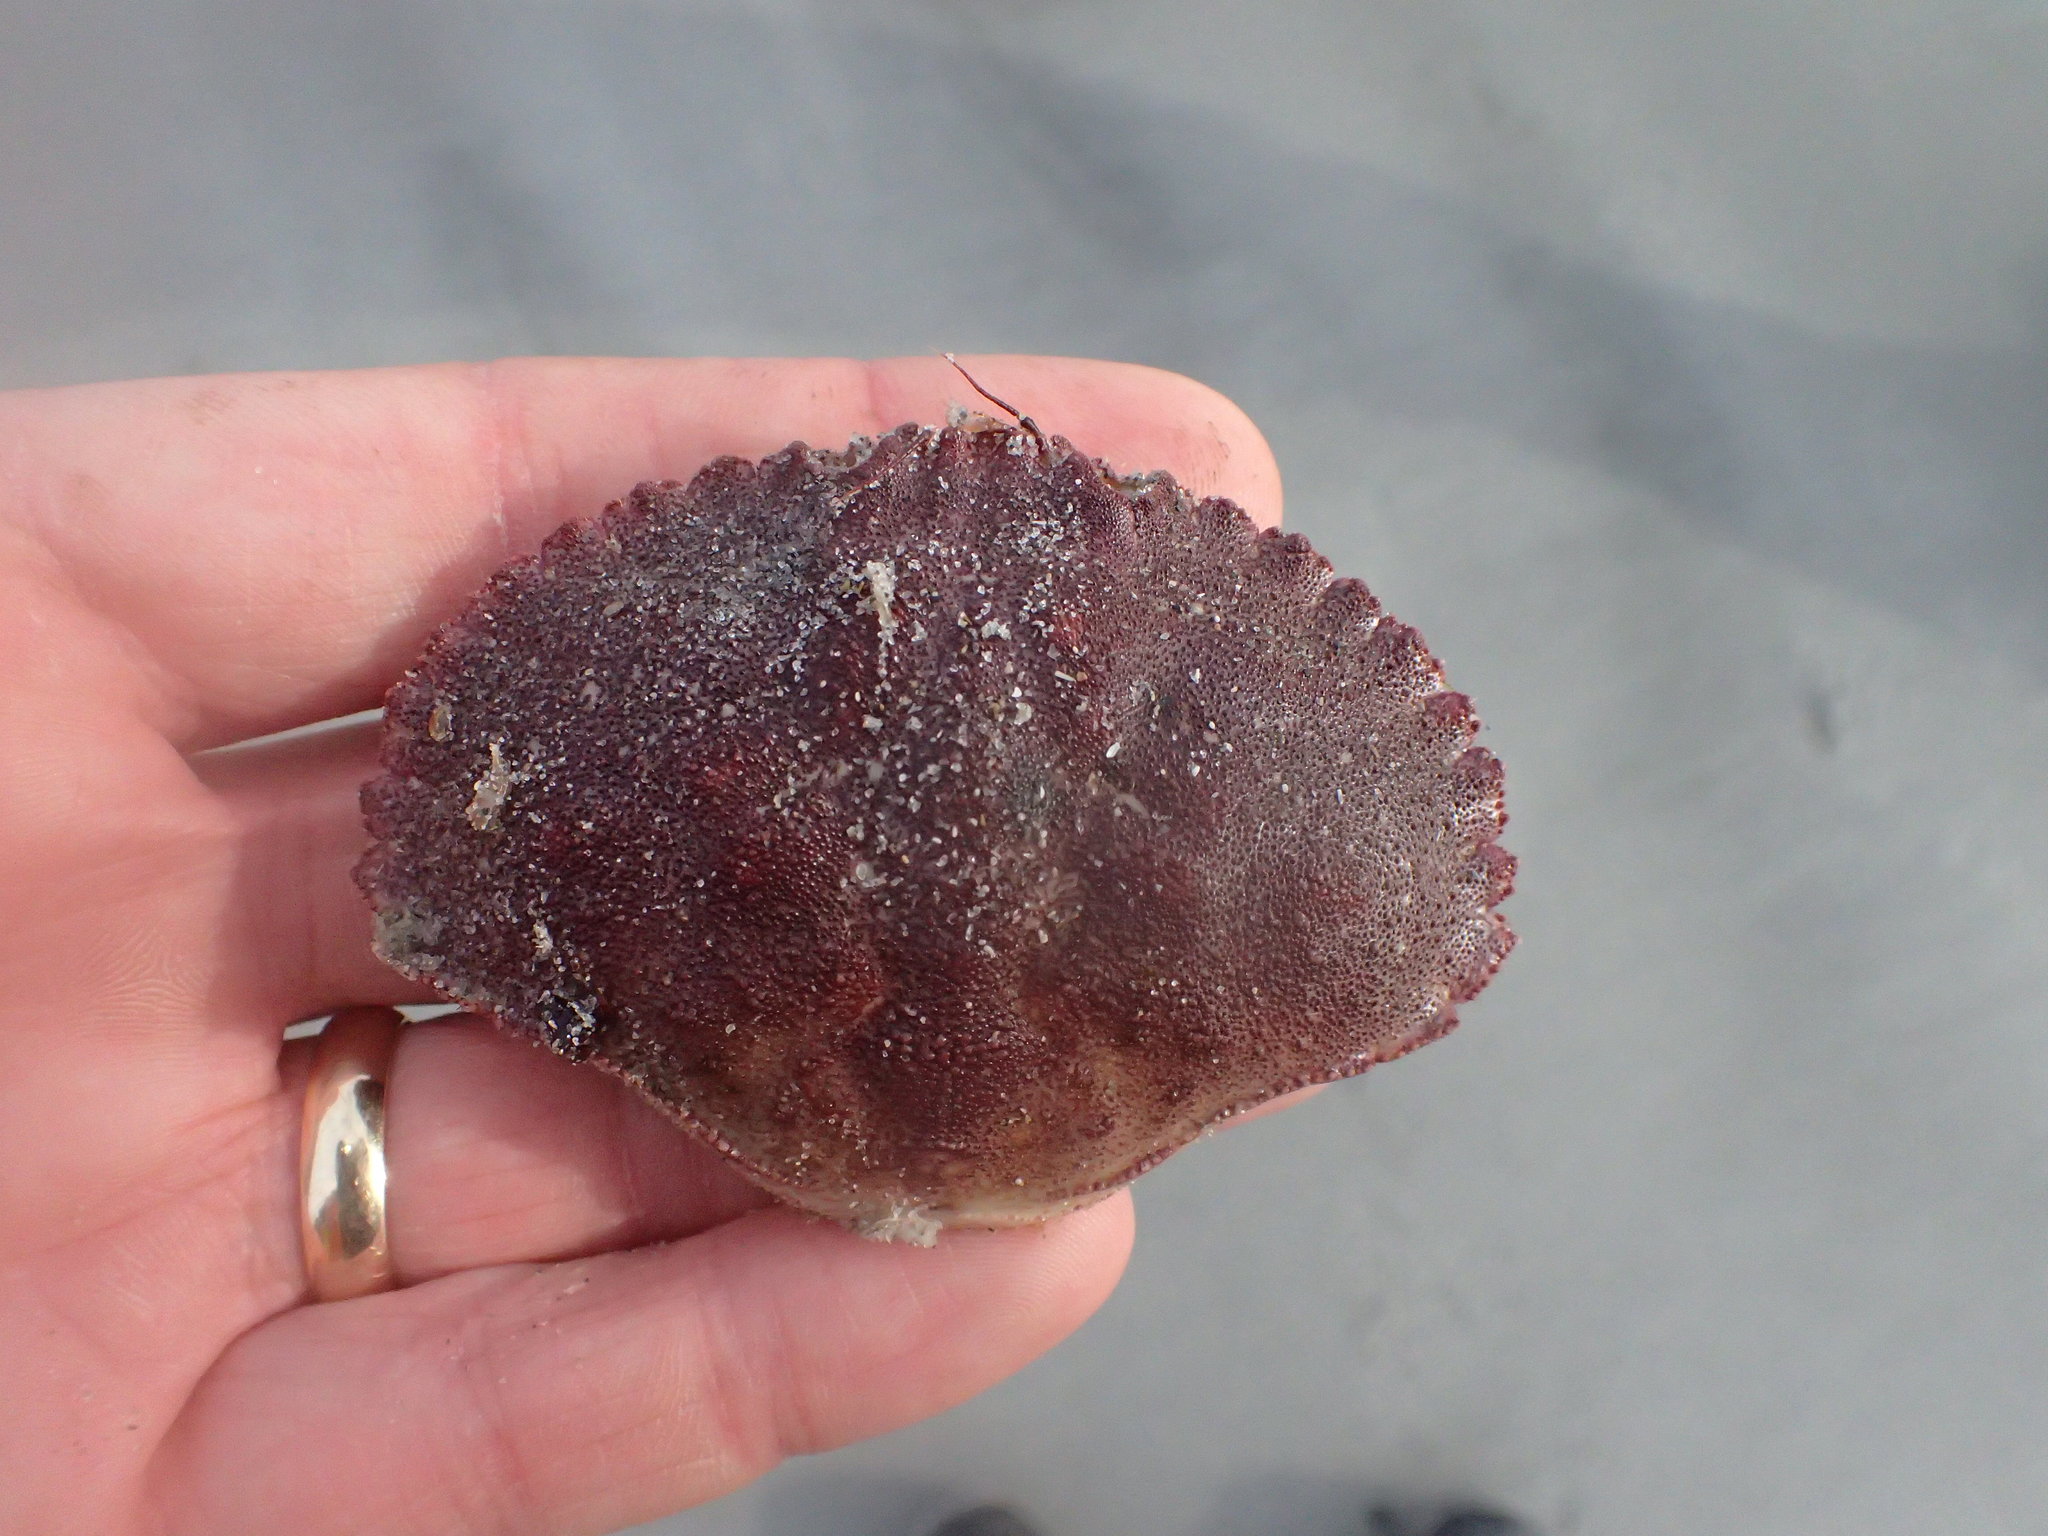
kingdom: Animalia
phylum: Arthropoda
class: Malacostraca
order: Decapoda
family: Cancridae
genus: Cancer
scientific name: Cancer borealis
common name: Jonah crab
